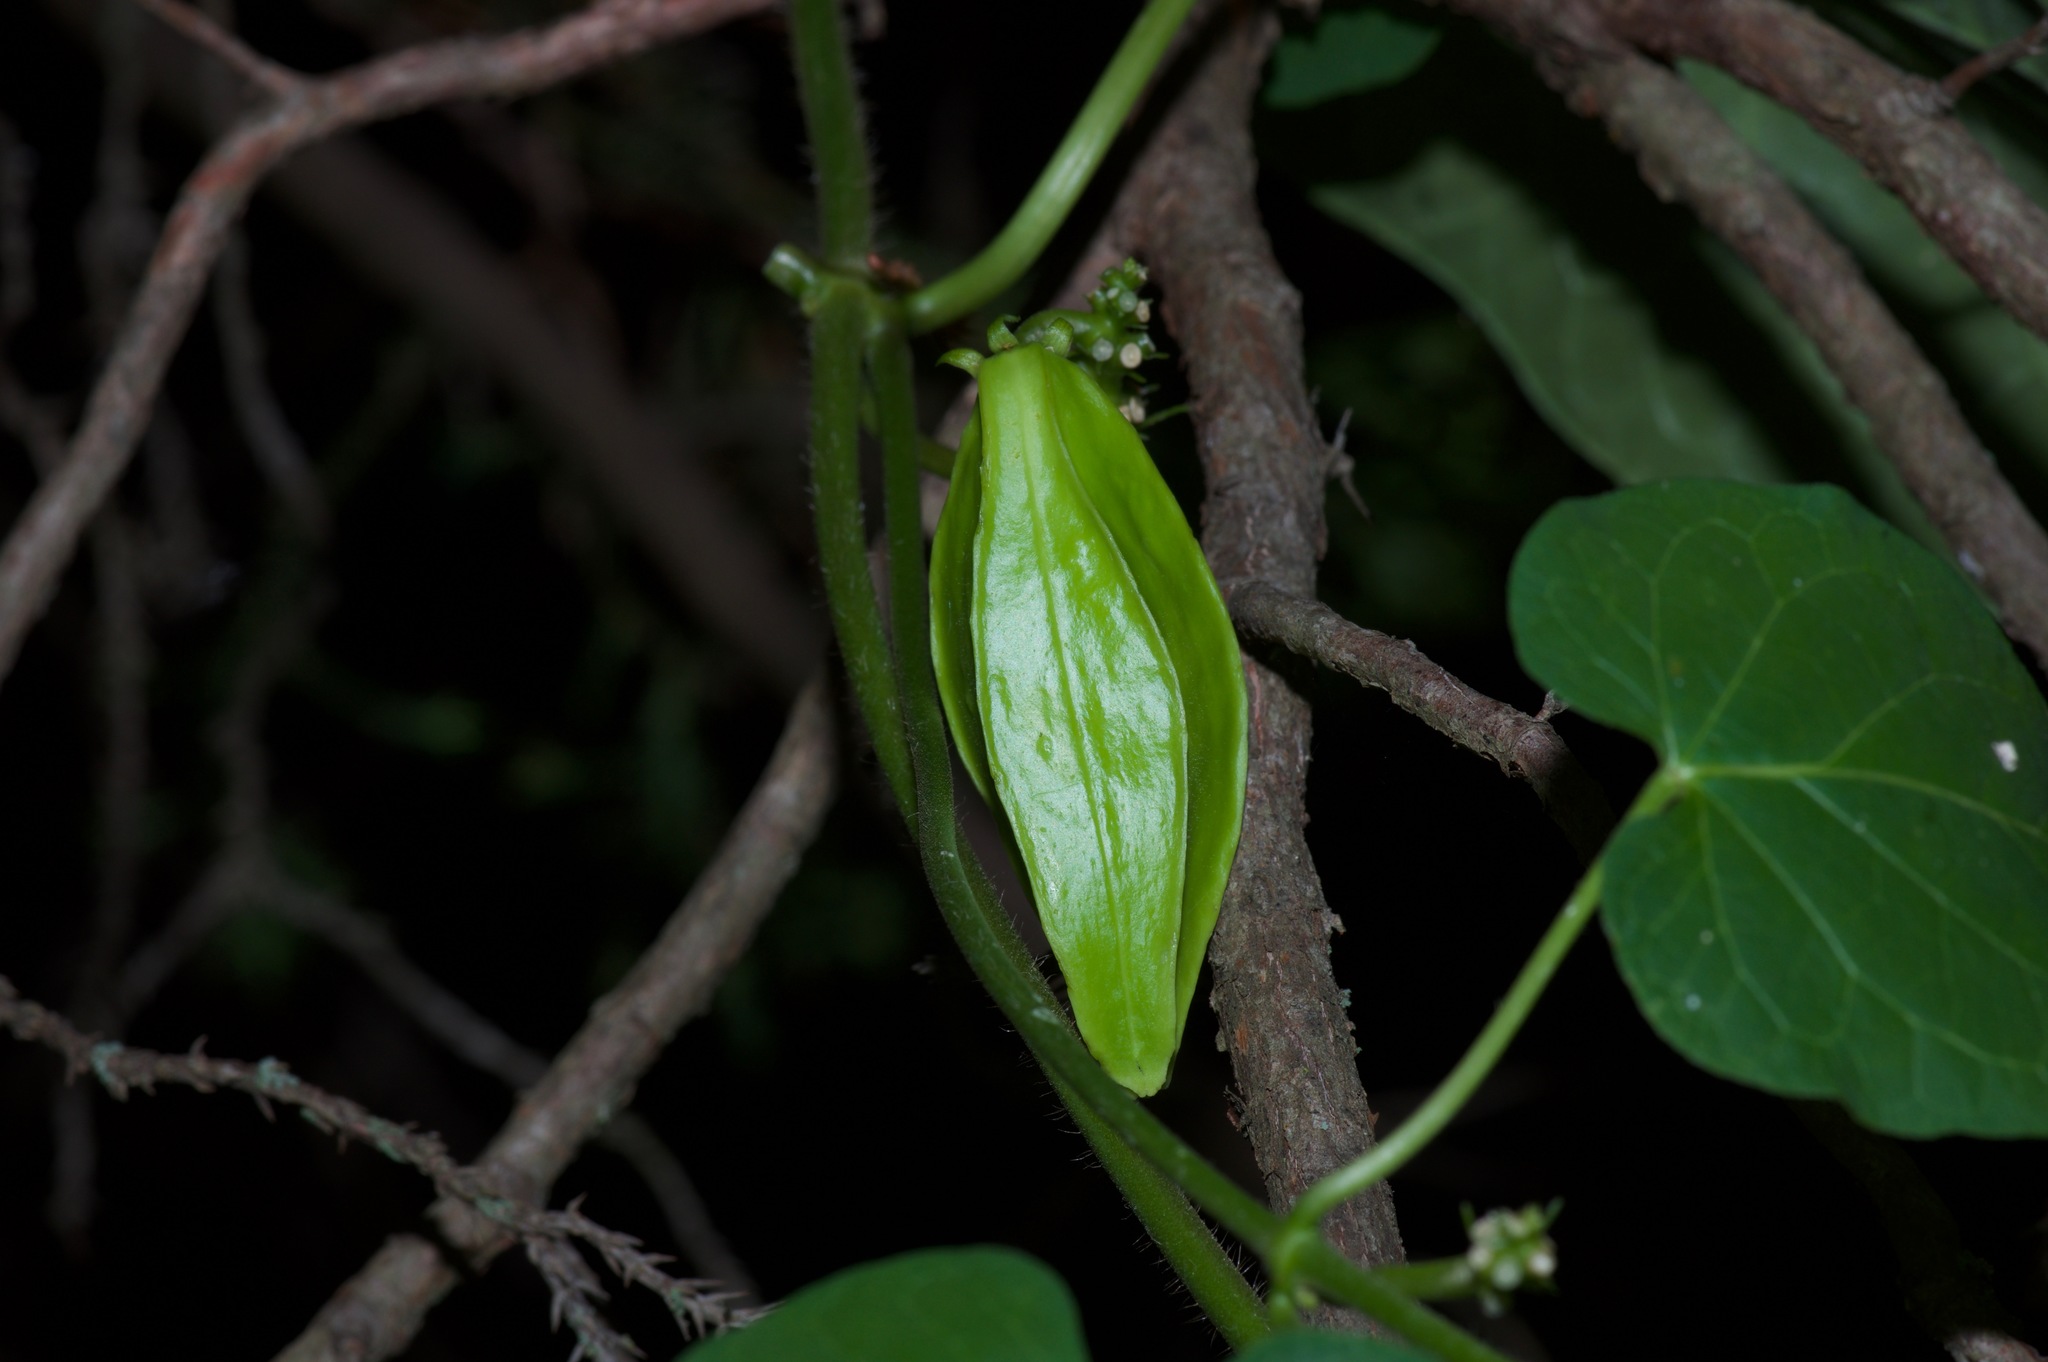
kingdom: Plantae
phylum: Tracheophyta
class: Magnoliopsida
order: Gentianales
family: Apocynaceae
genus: Gonolobus
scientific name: Gonolobus suberosus
